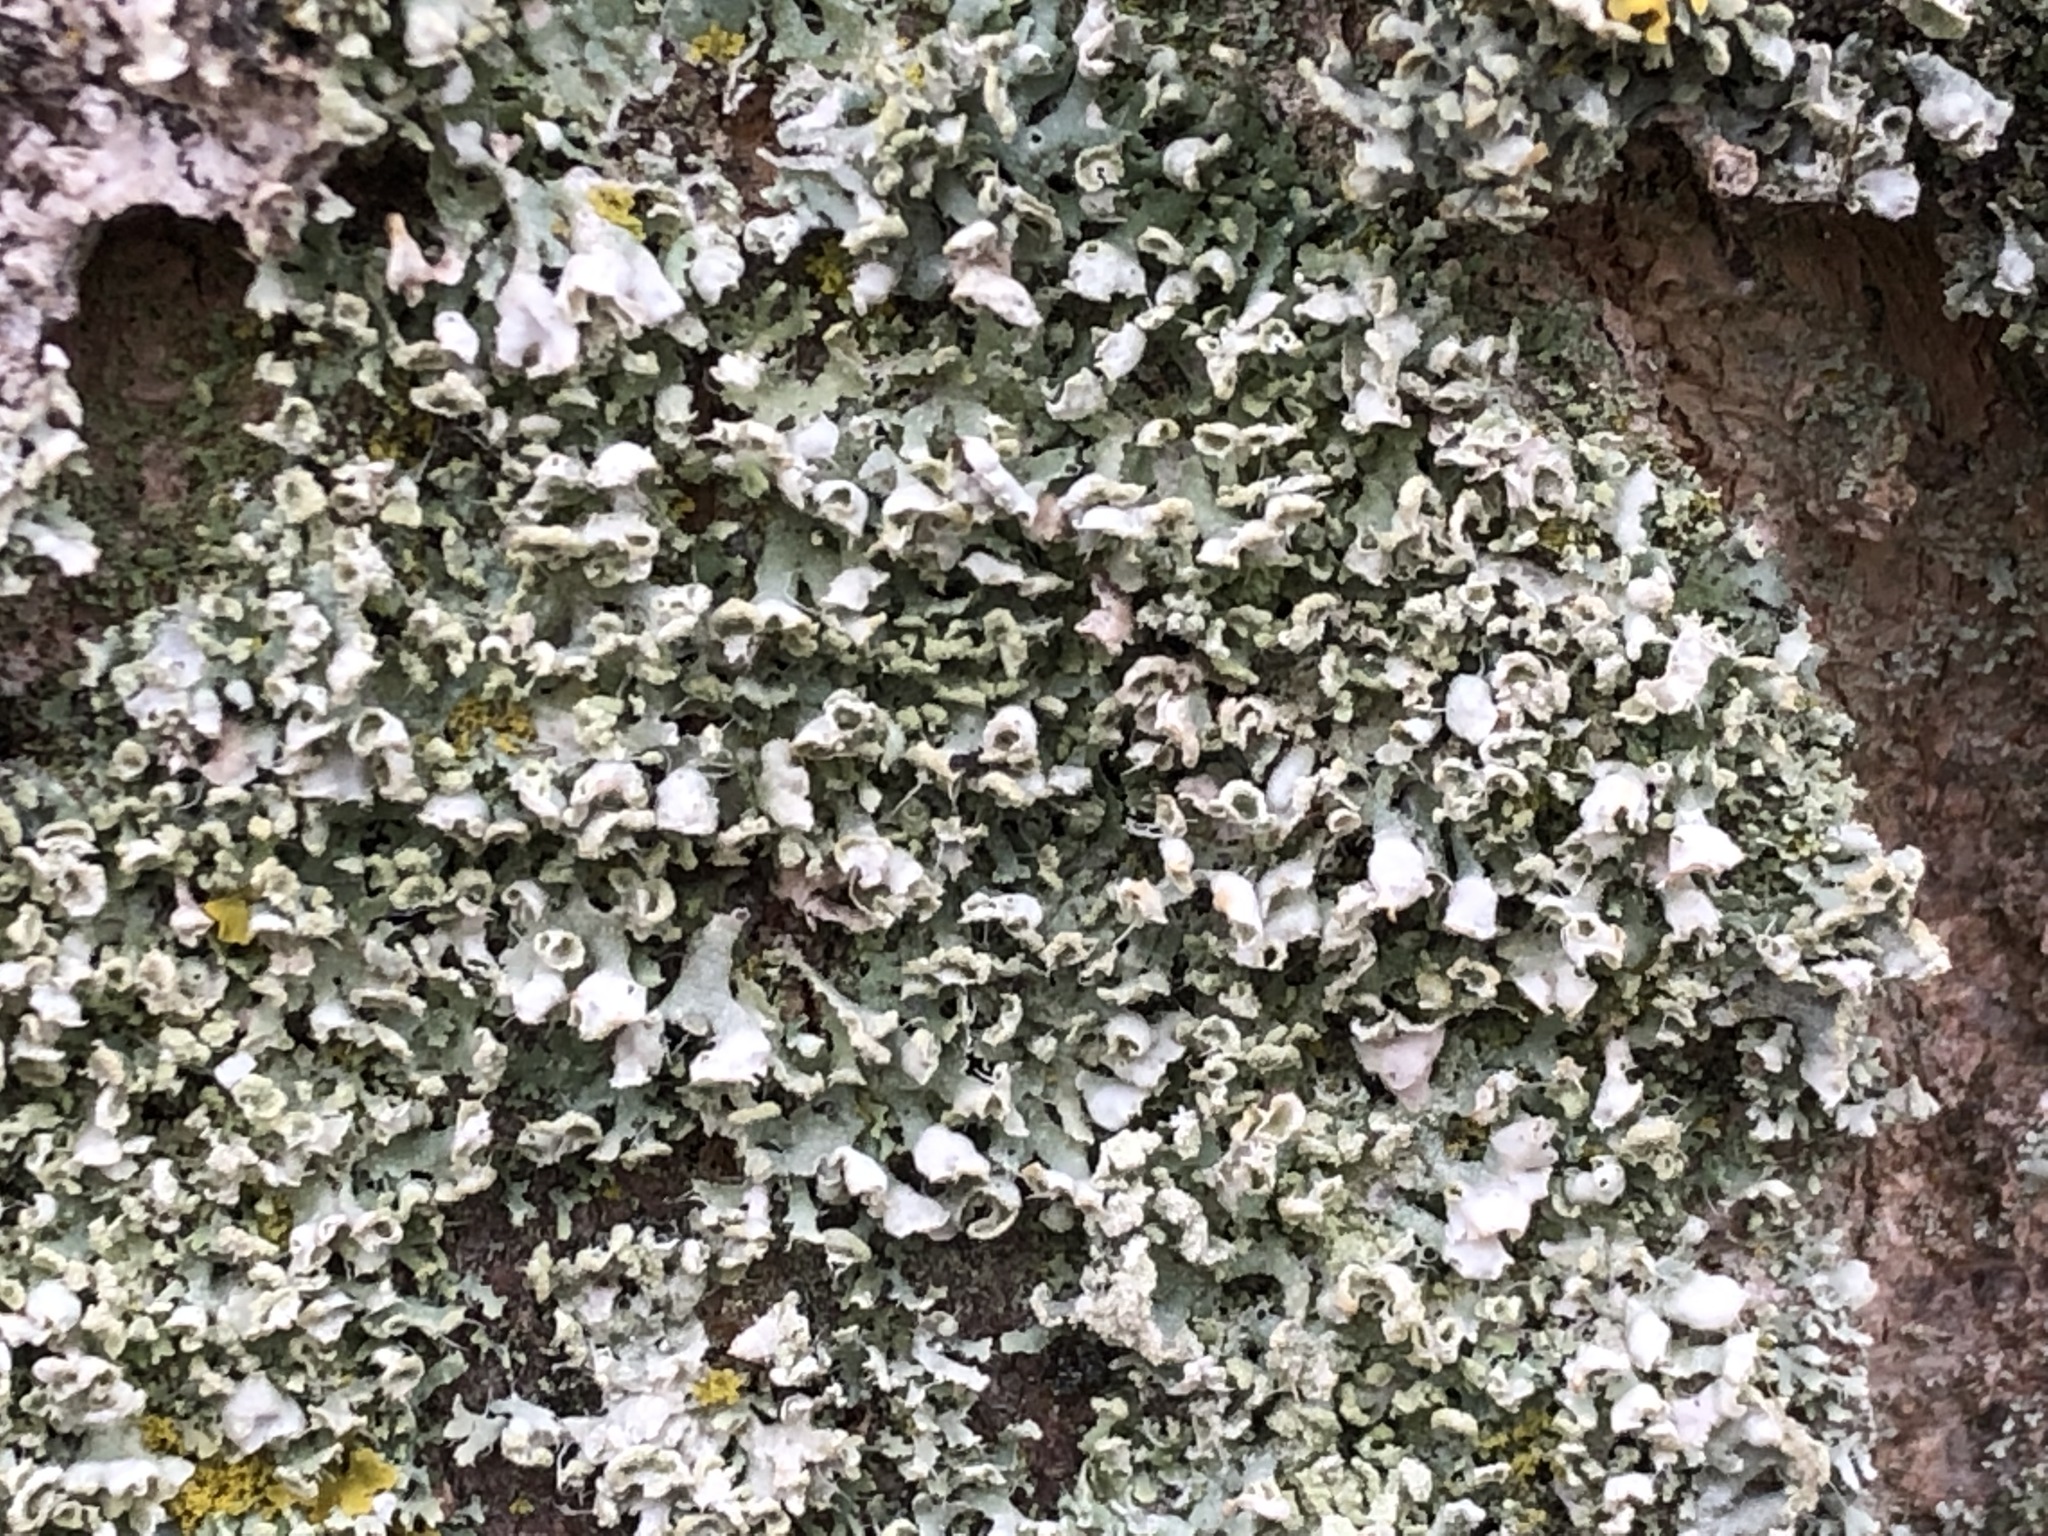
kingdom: Fungi
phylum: Ascomycota
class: Lecanoromycetes
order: Caliciales
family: Physciaceae
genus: Physcia
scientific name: Physcia adscendens
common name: Hooded rosette lichen
